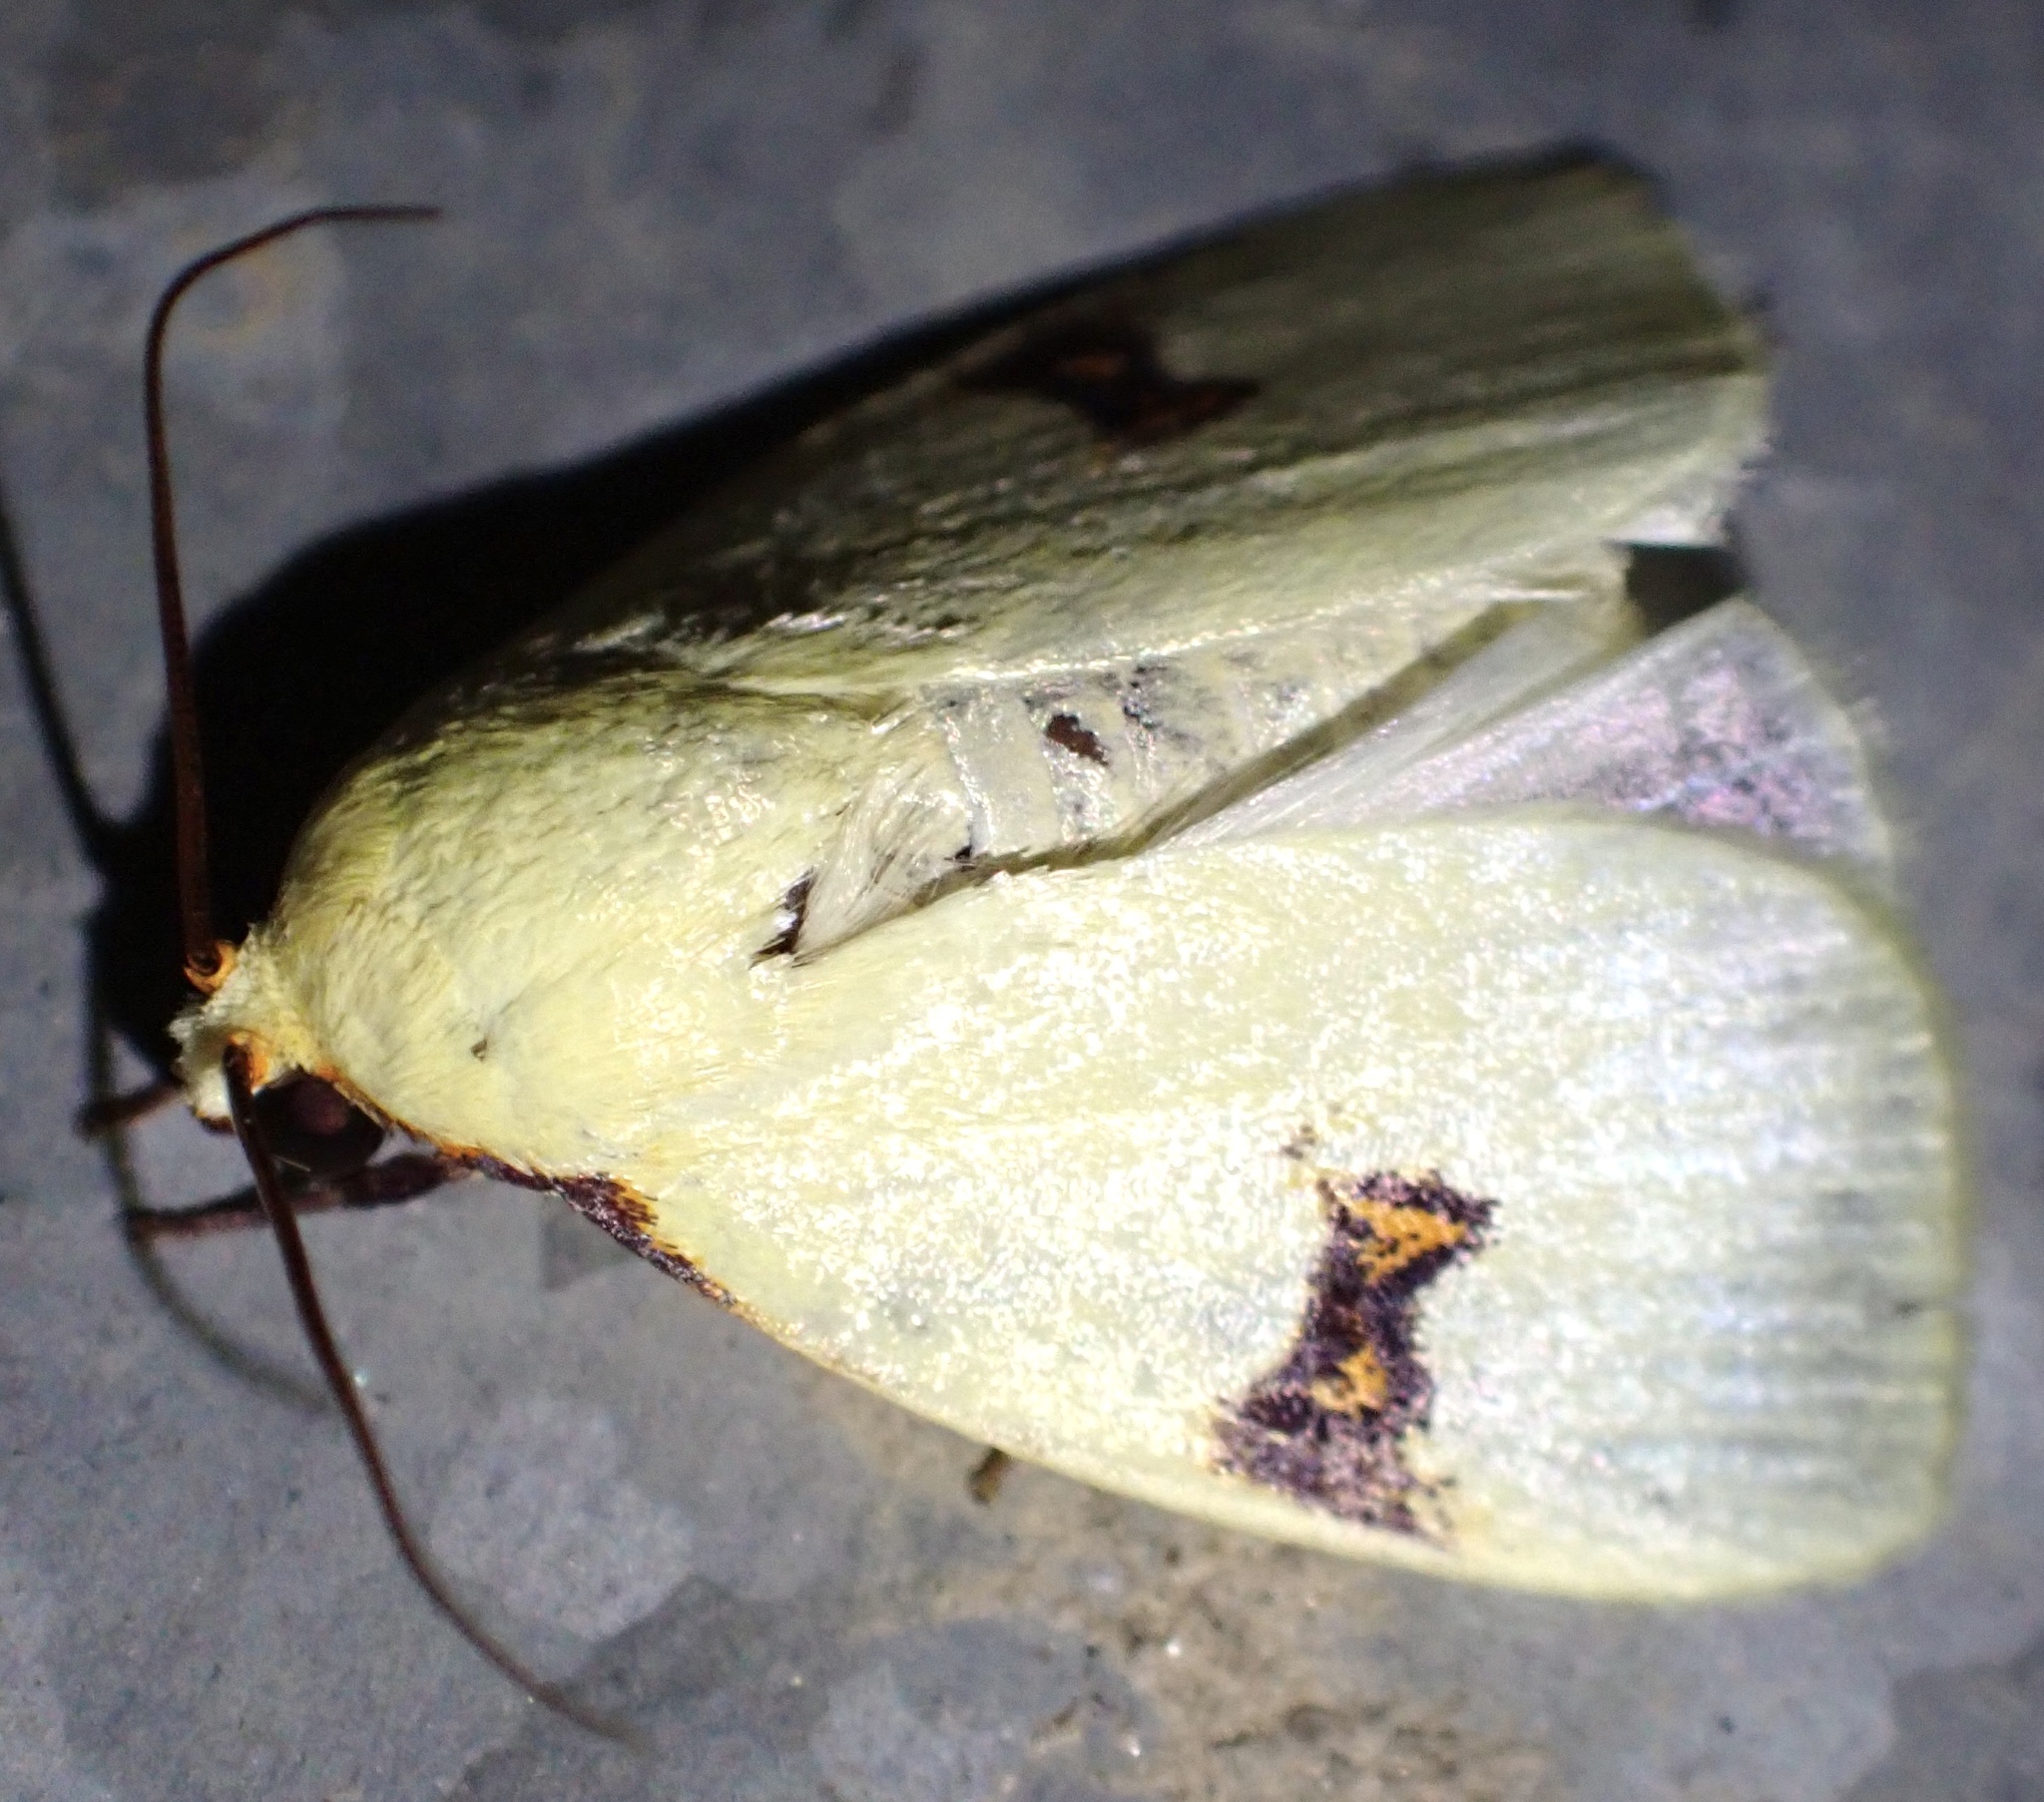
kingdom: Animalia
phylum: Arthropoda
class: Insecta
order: Lepidoptera
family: Nolidae
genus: Earias
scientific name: Earias uniplaga
